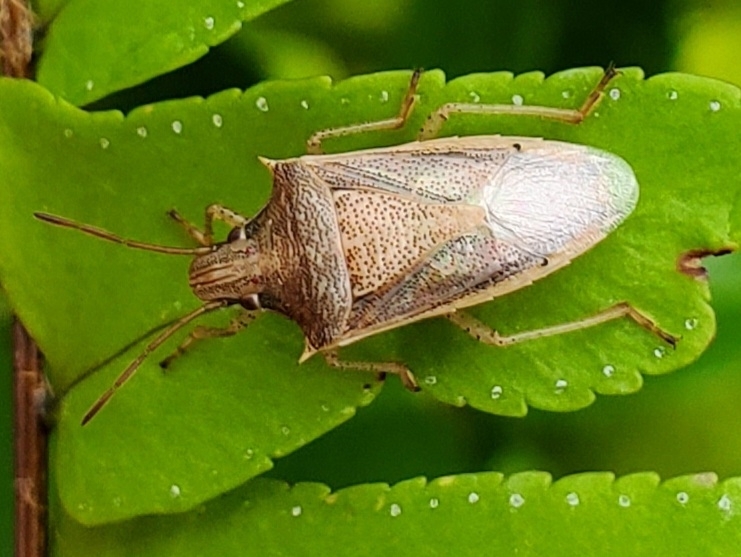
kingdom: Animalia
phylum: Arthropoda
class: Insecta
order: Hemiptera
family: Pentatomidae
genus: Oebalus
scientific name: Oebalus pugnax
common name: Rice stink bug
